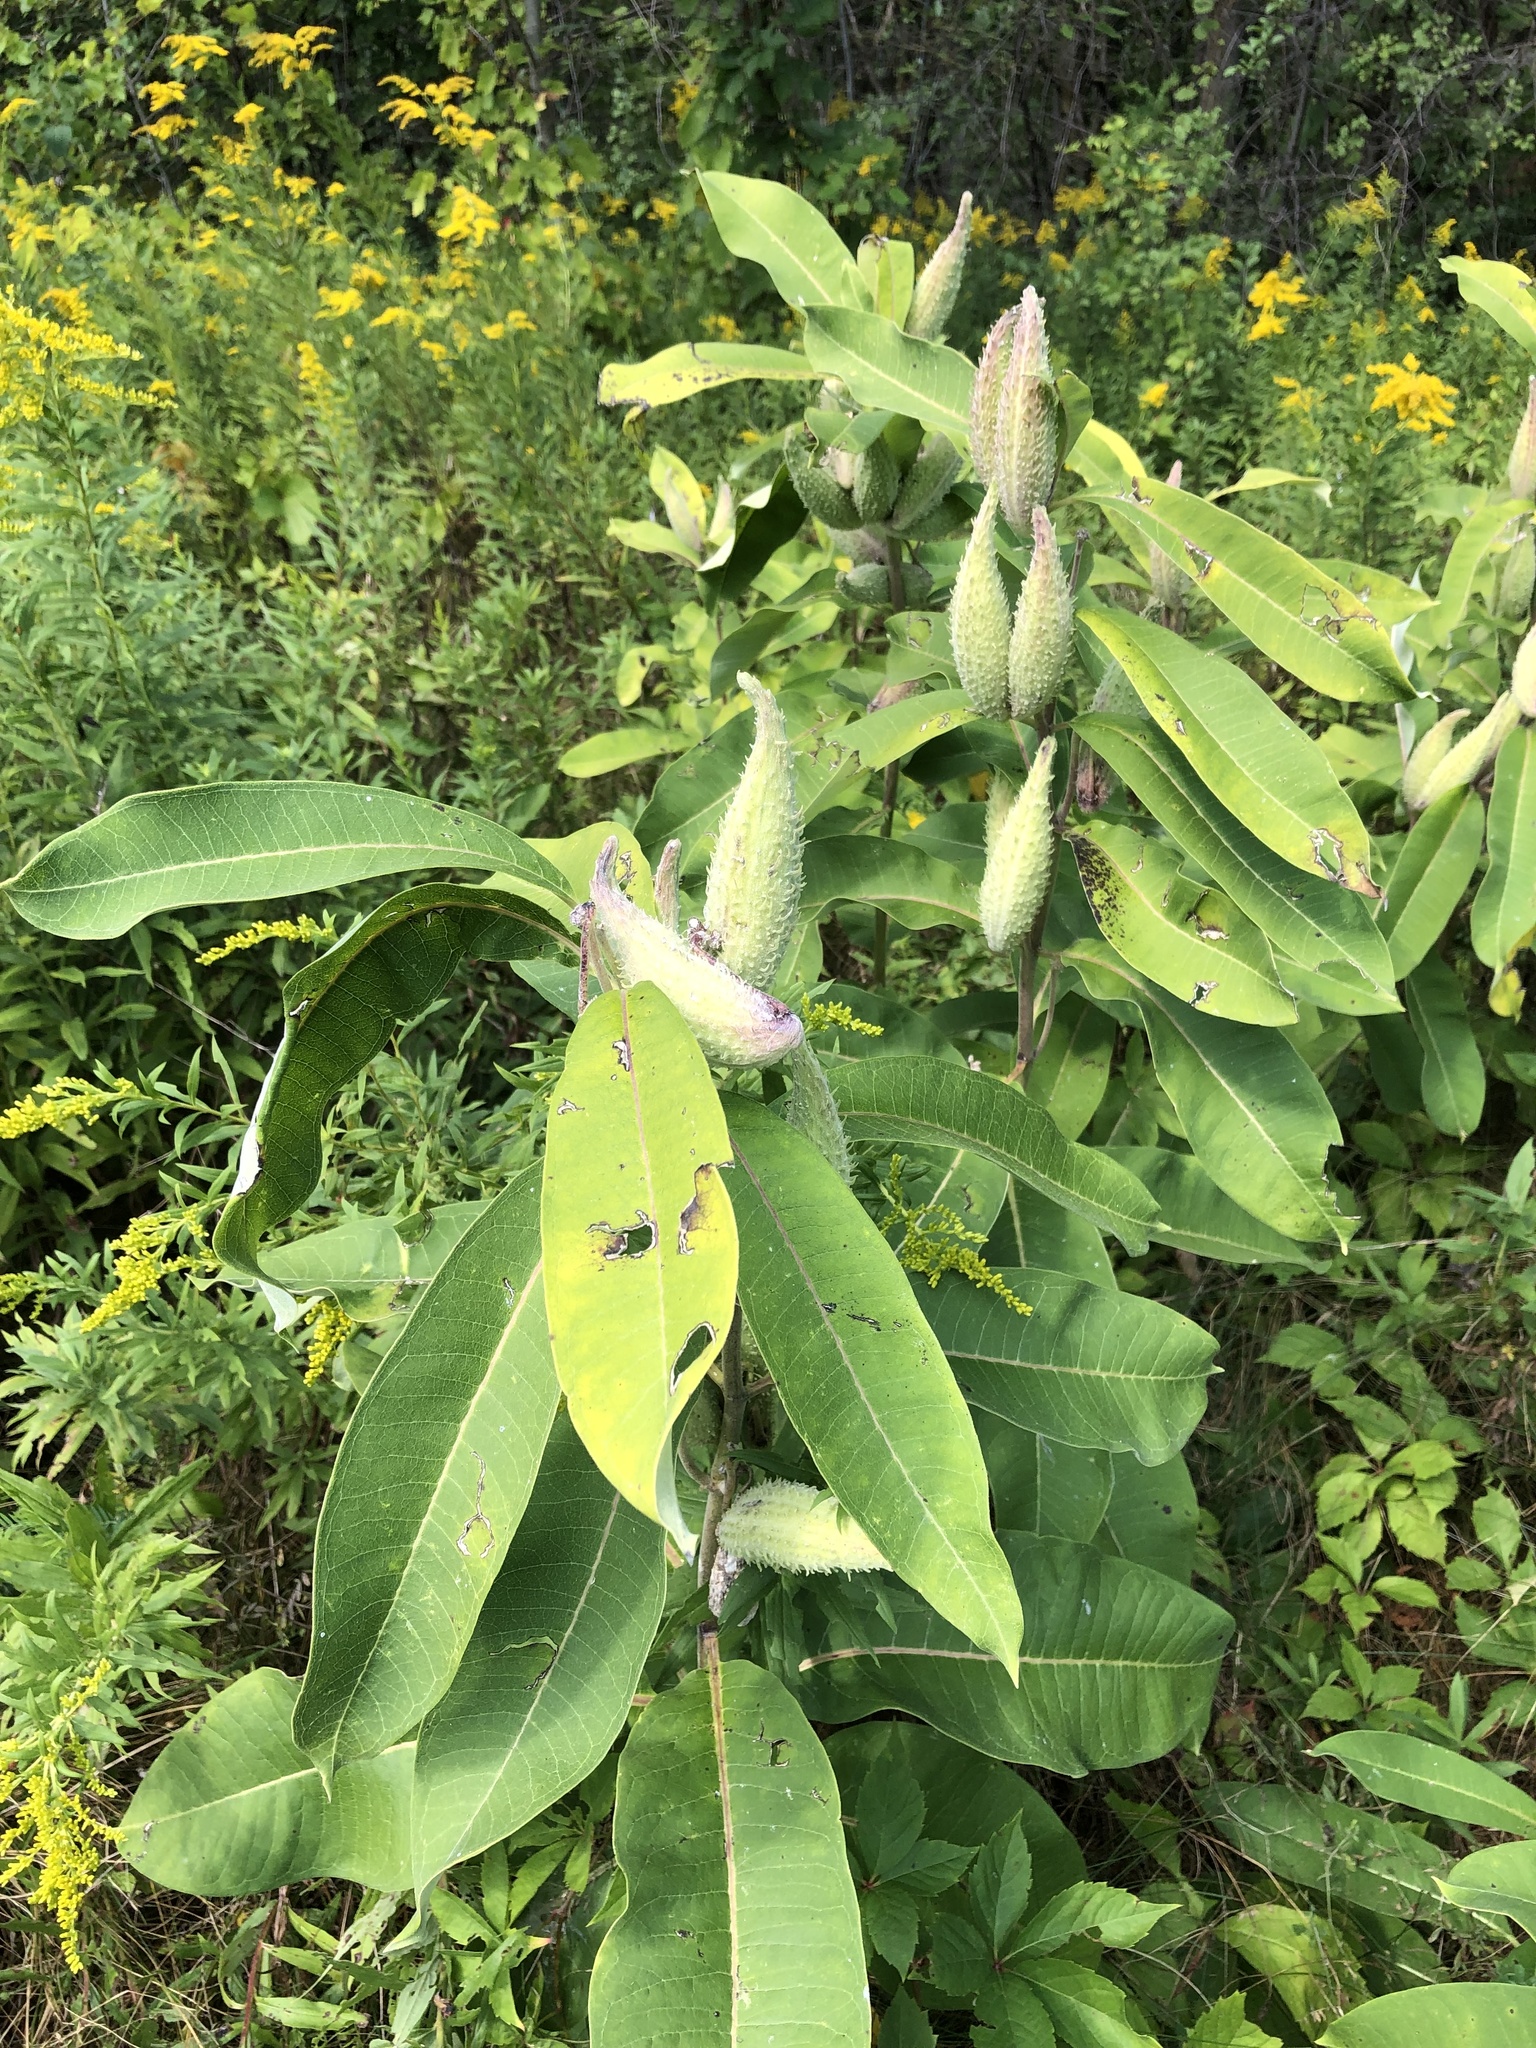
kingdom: Plantae
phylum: Tracheophyta
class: Magnoliopsida
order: Gentianales
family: Apocynaceae
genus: Asclepias
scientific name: Asclepias syriaca
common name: Common milkweed
